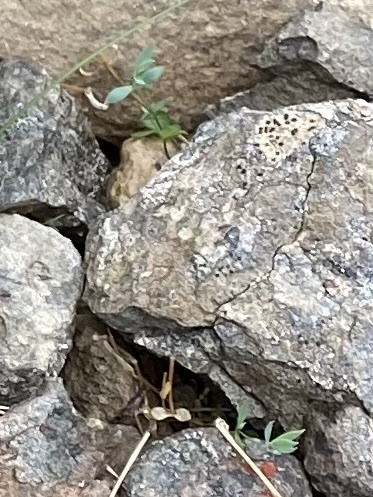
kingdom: Plantae
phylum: Tracheophyta
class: Magnoliopsida
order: Caryophyllales
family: Caryophyllaceae
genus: Stellaria
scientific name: Stellaria longipes
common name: Goldie's starwort
